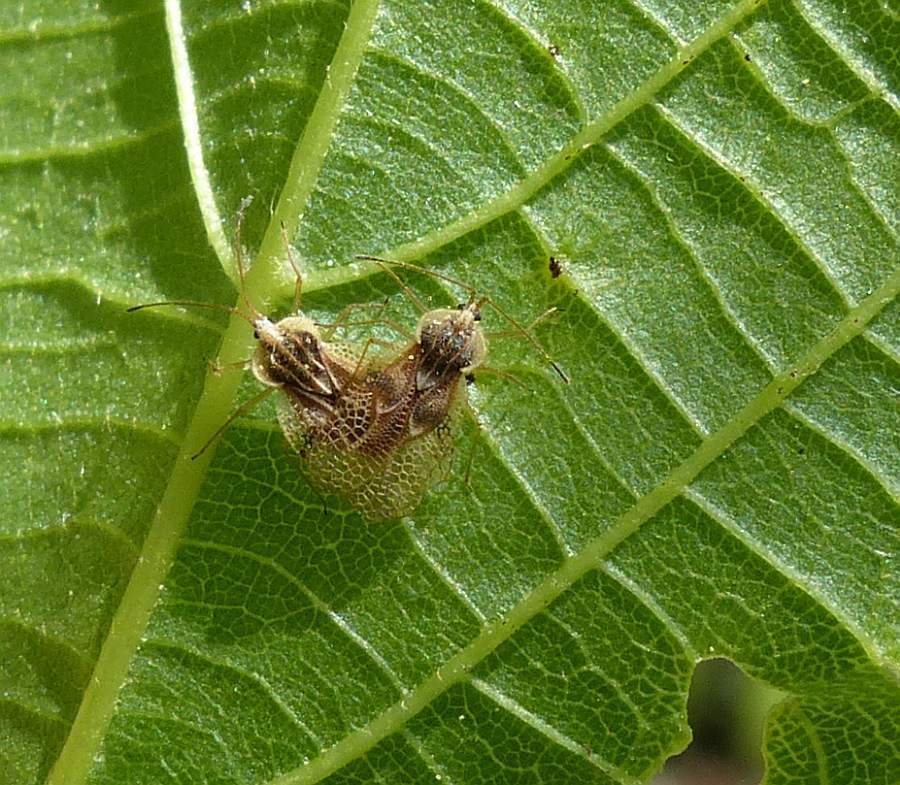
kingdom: Animalia
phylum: Arthropoda
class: Insecta
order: Hemiptera
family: Tingidae
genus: Gargaphia
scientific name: Gargaphia tiliae
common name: Basswood lace bug
